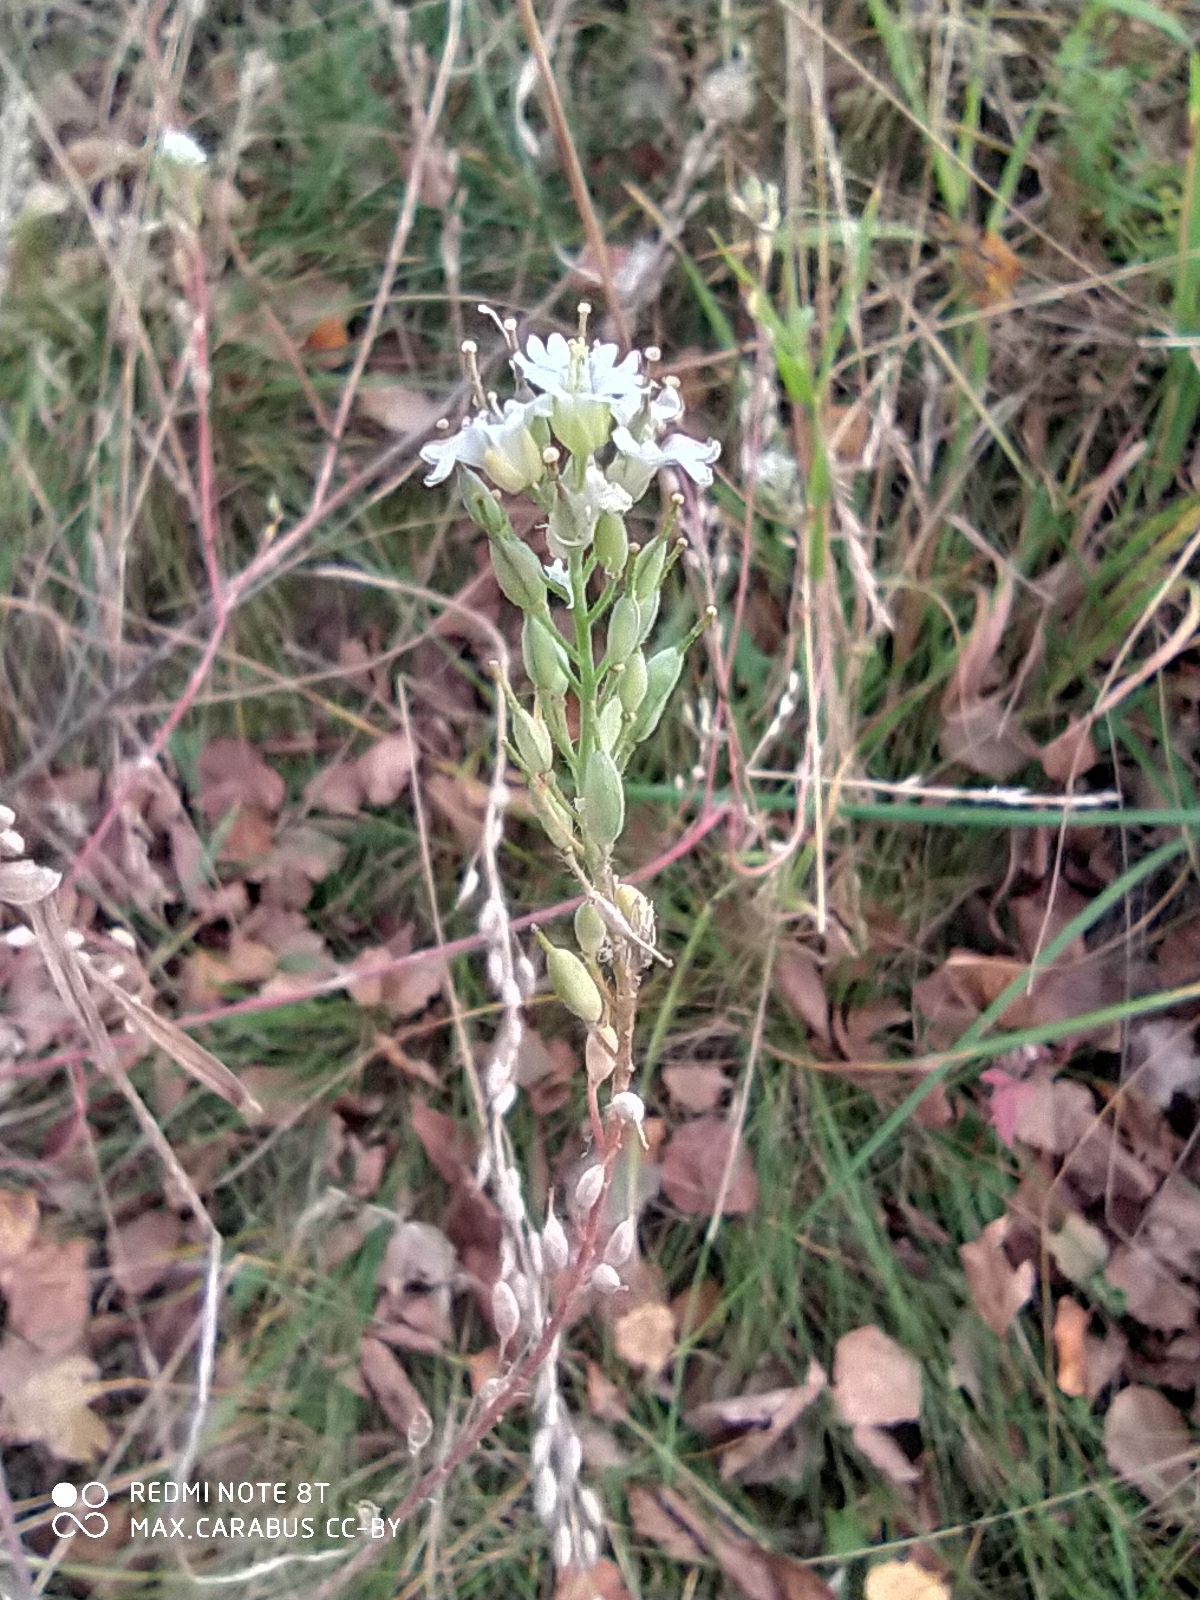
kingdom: Plantae
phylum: Tracheophyta
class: Magnoliopsida
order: Brassicales
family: Brassicaceae
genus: Berteroa
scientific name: Berteroa incana
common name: Hoary alison
